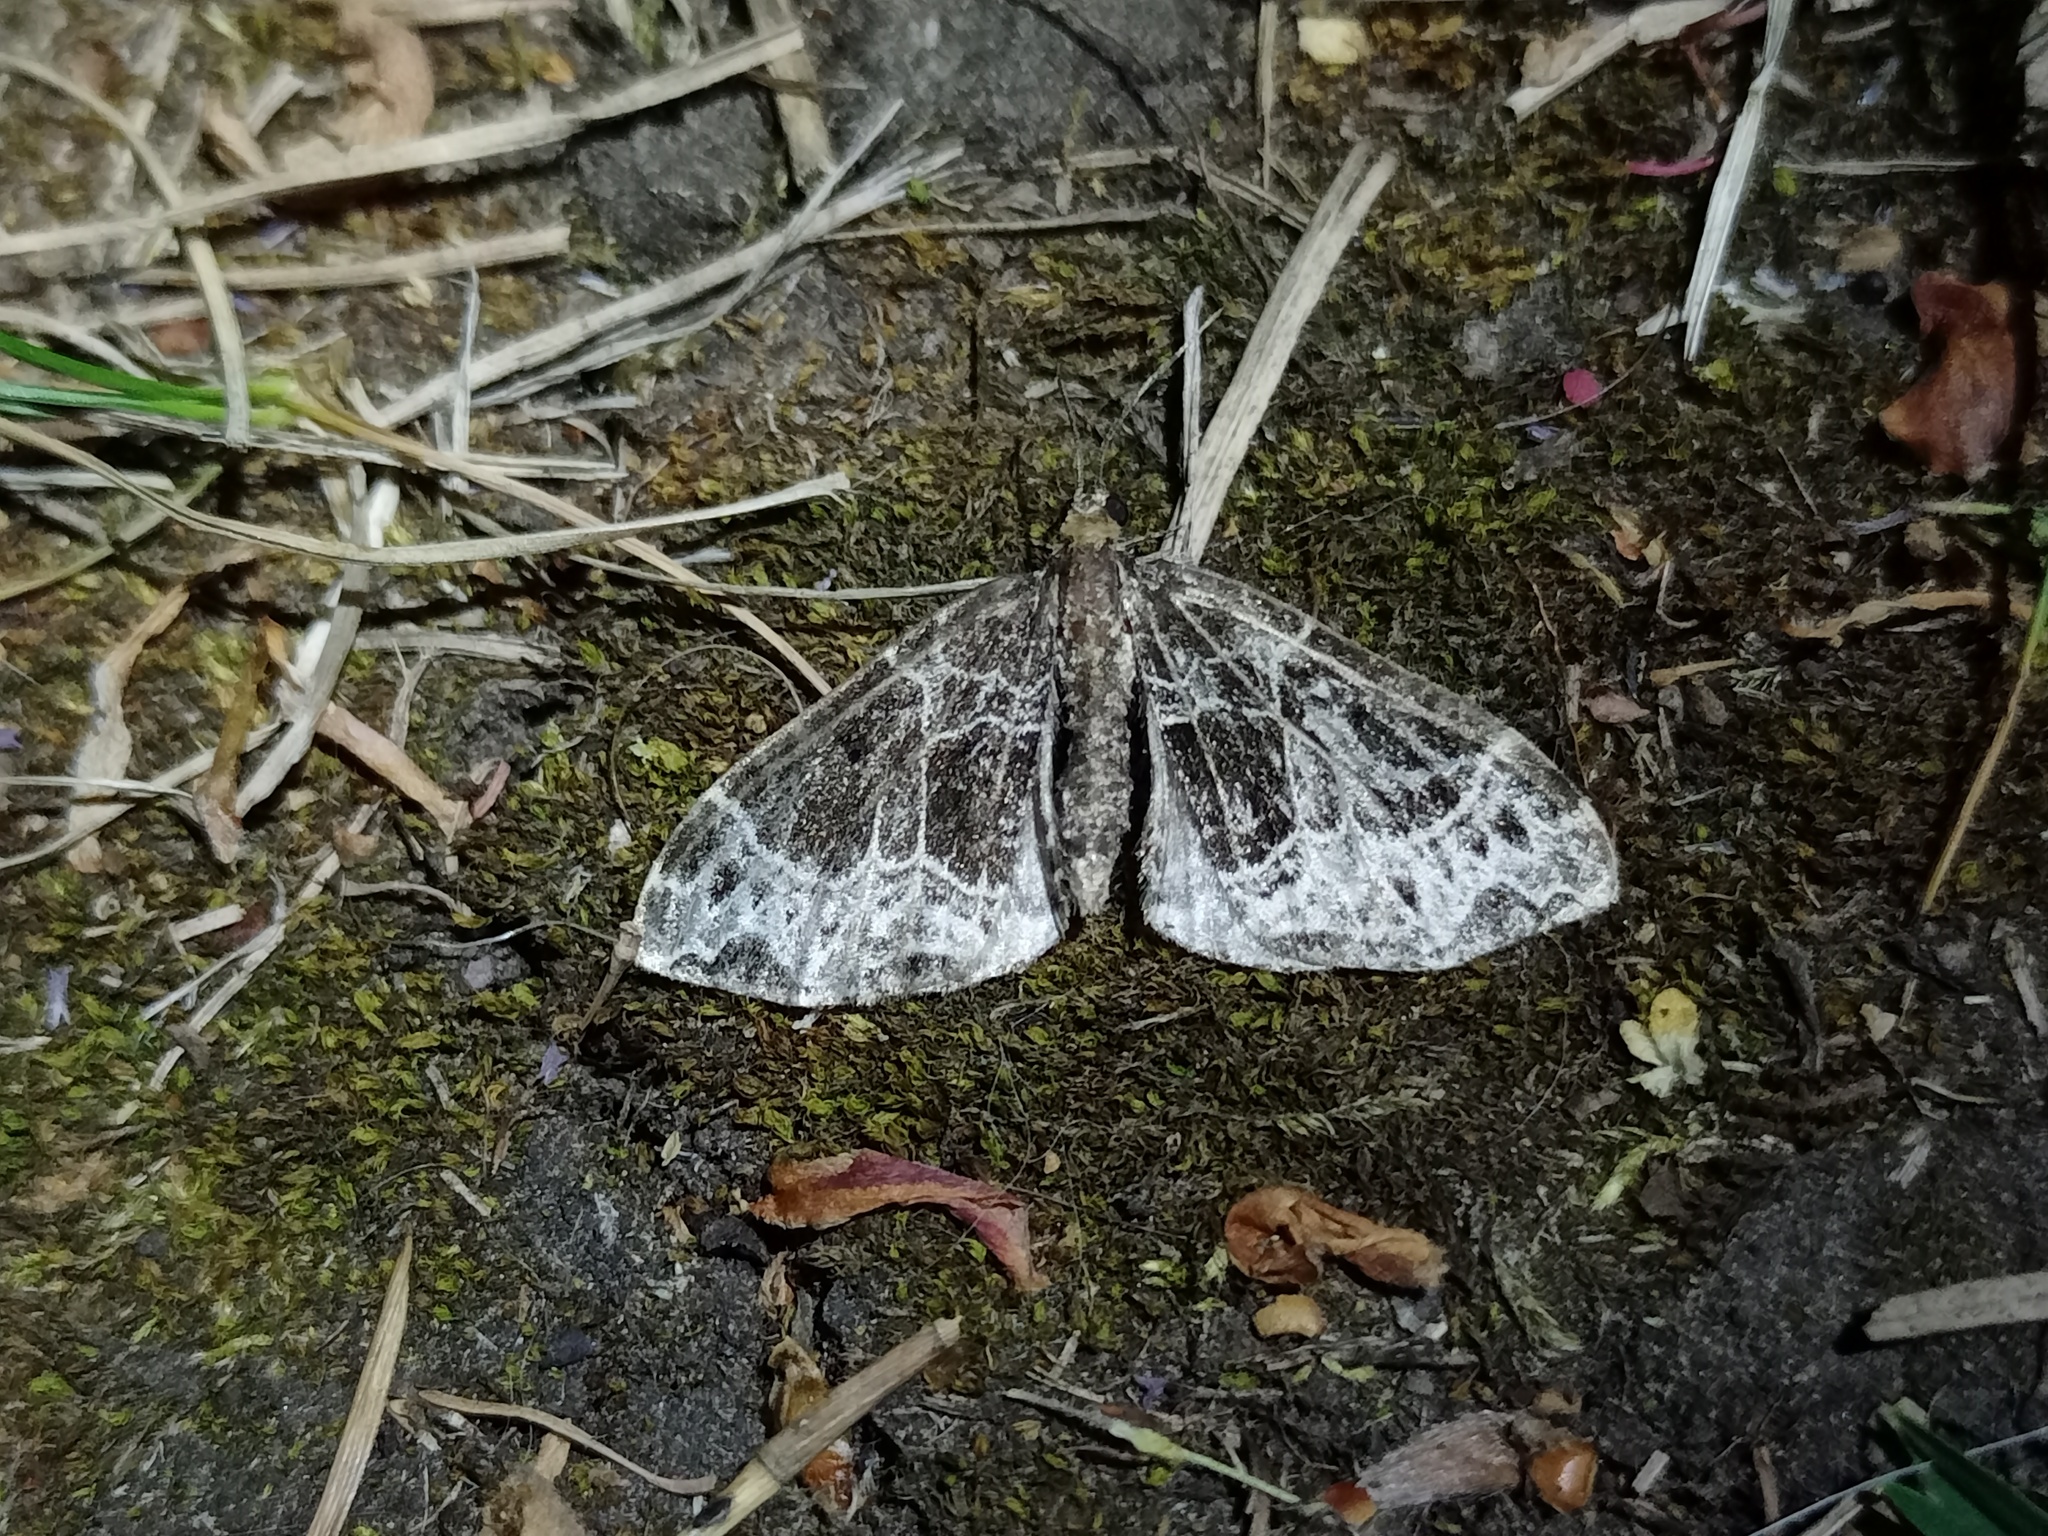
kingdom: Animalia
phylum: Arthropoda
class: Insecta
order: Lepidoptera
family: Geometridae
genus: Ecliptopera
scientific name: Ecliptopera silaceata
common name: Small phoenix
